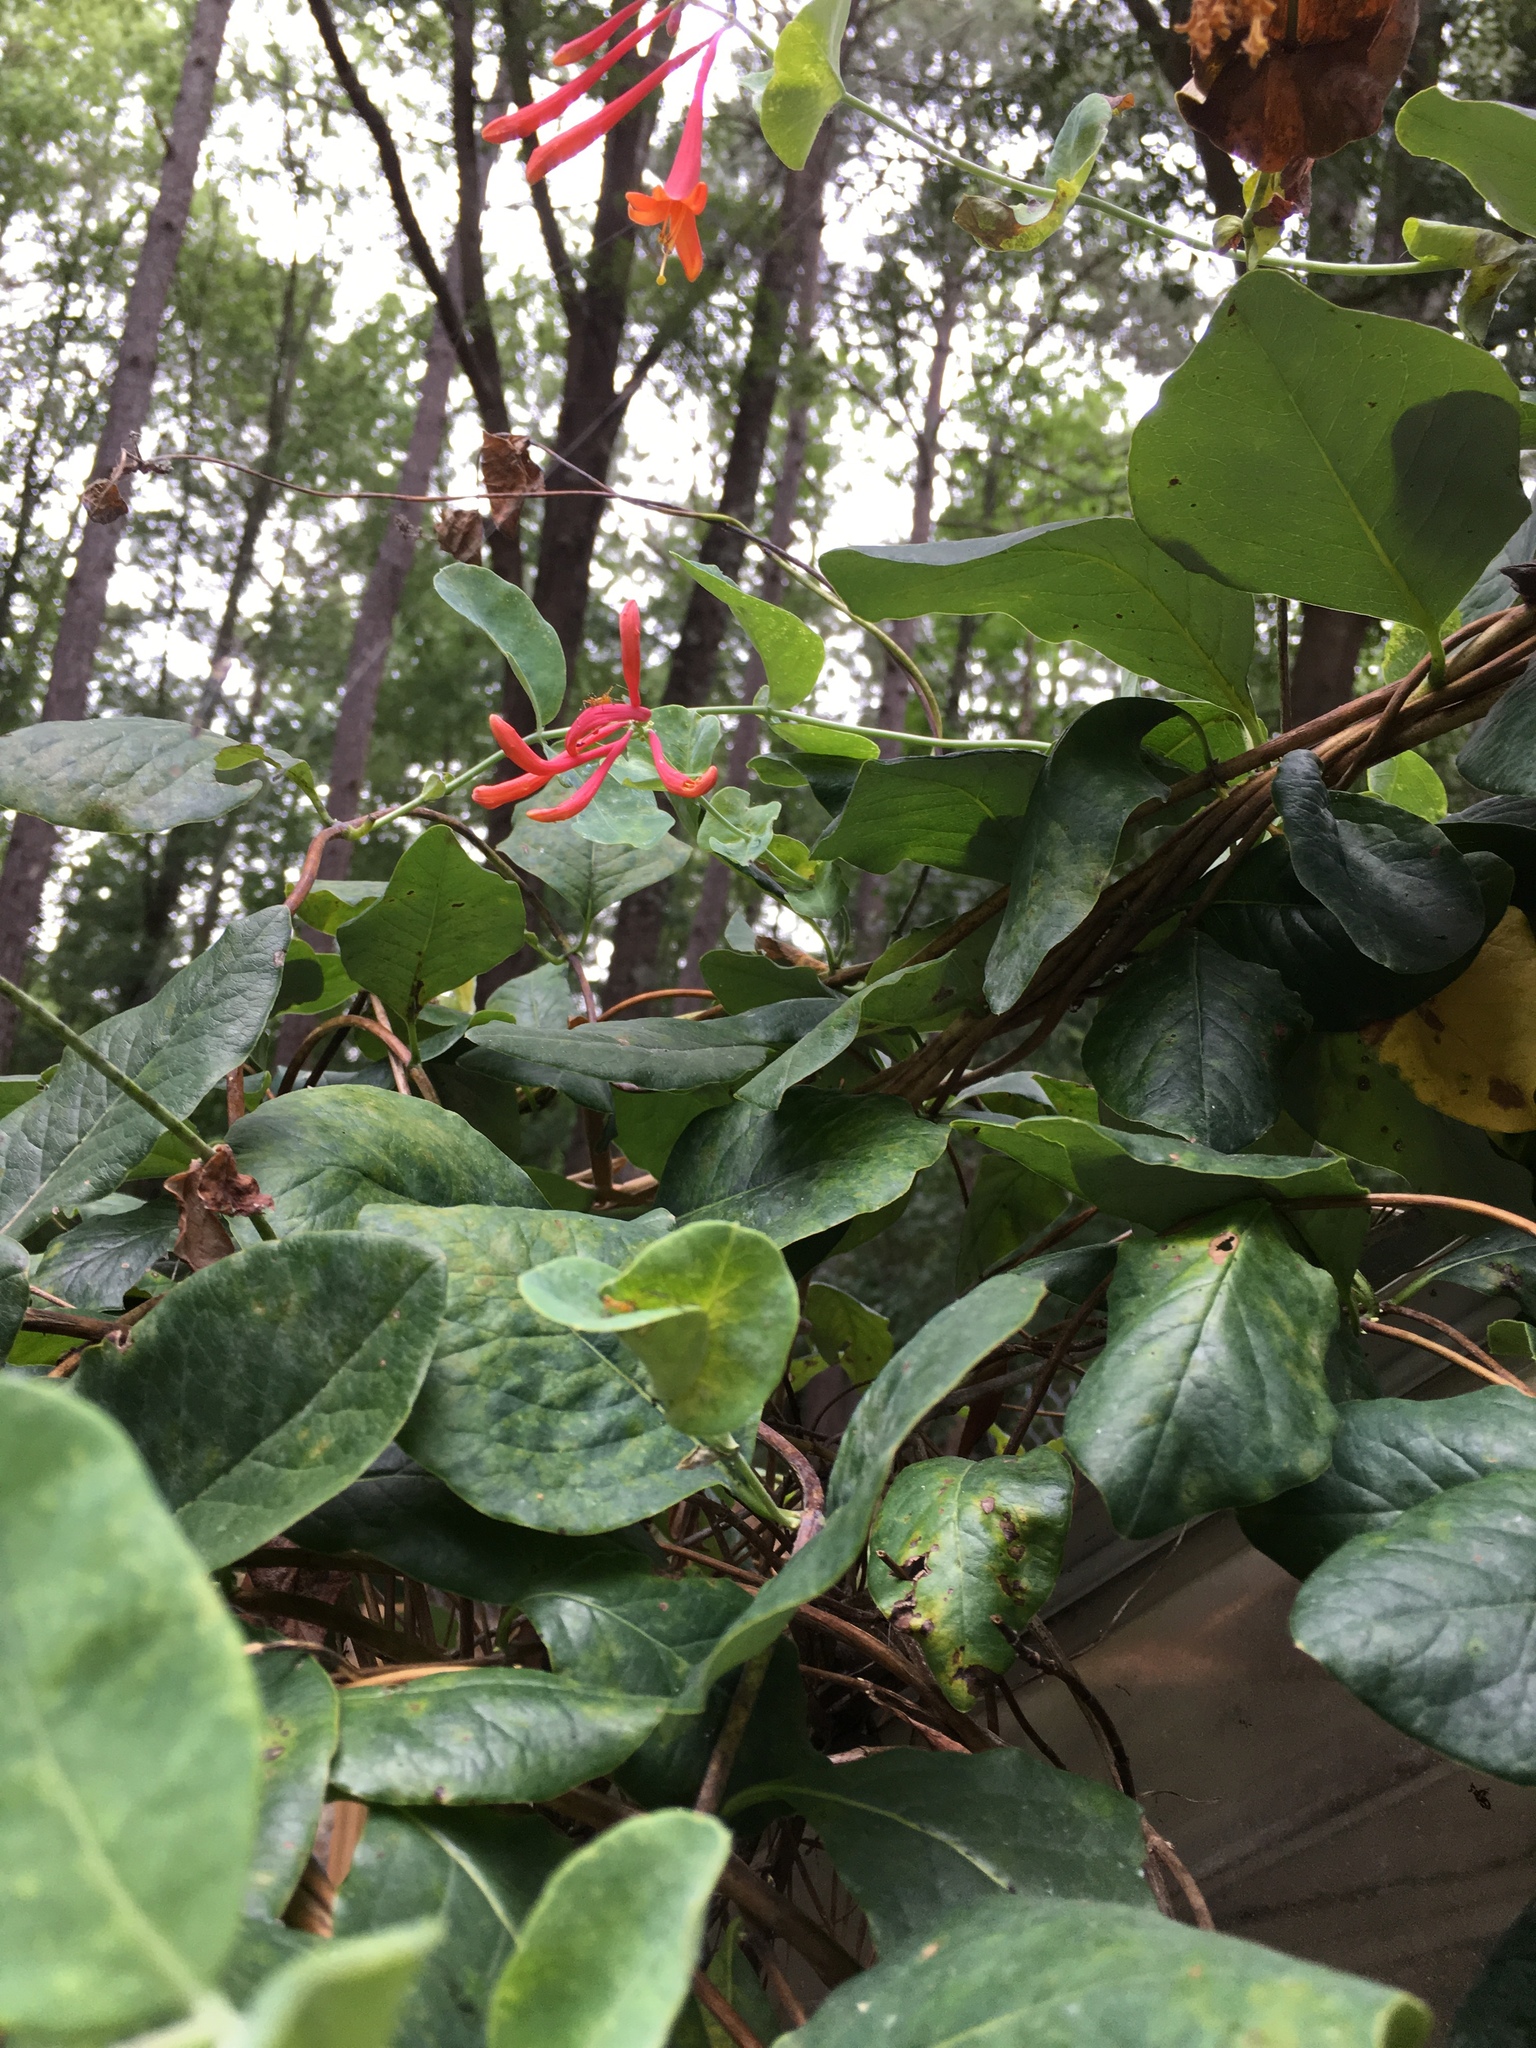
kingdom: Plantae
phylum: Tracheophyta
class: Magnoliopsida
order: Dipsacales
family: Caprifoliaceae
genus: Lonicera
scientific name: Lonicera sempervirens
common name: Coral honeysuckle
